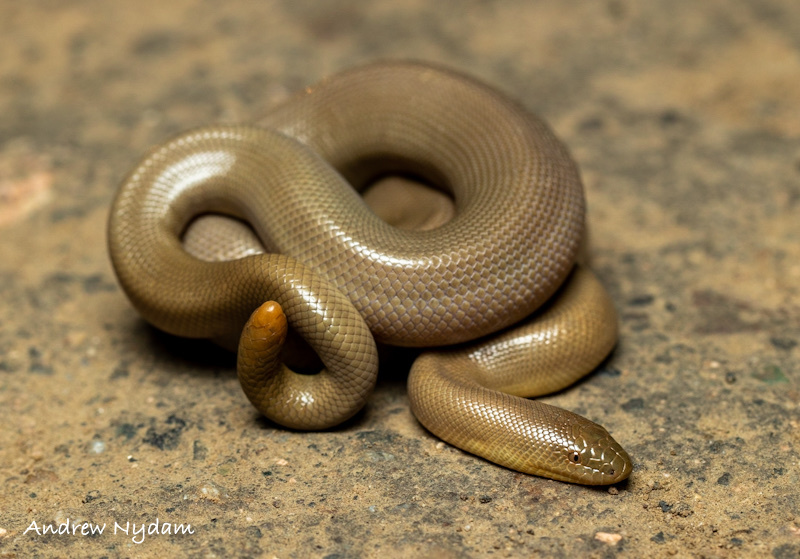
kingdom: Animalia
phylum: Chordata
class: Squamata
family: Boidae
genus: Charina
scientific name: Charina bottae
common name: Northern rubber boa
